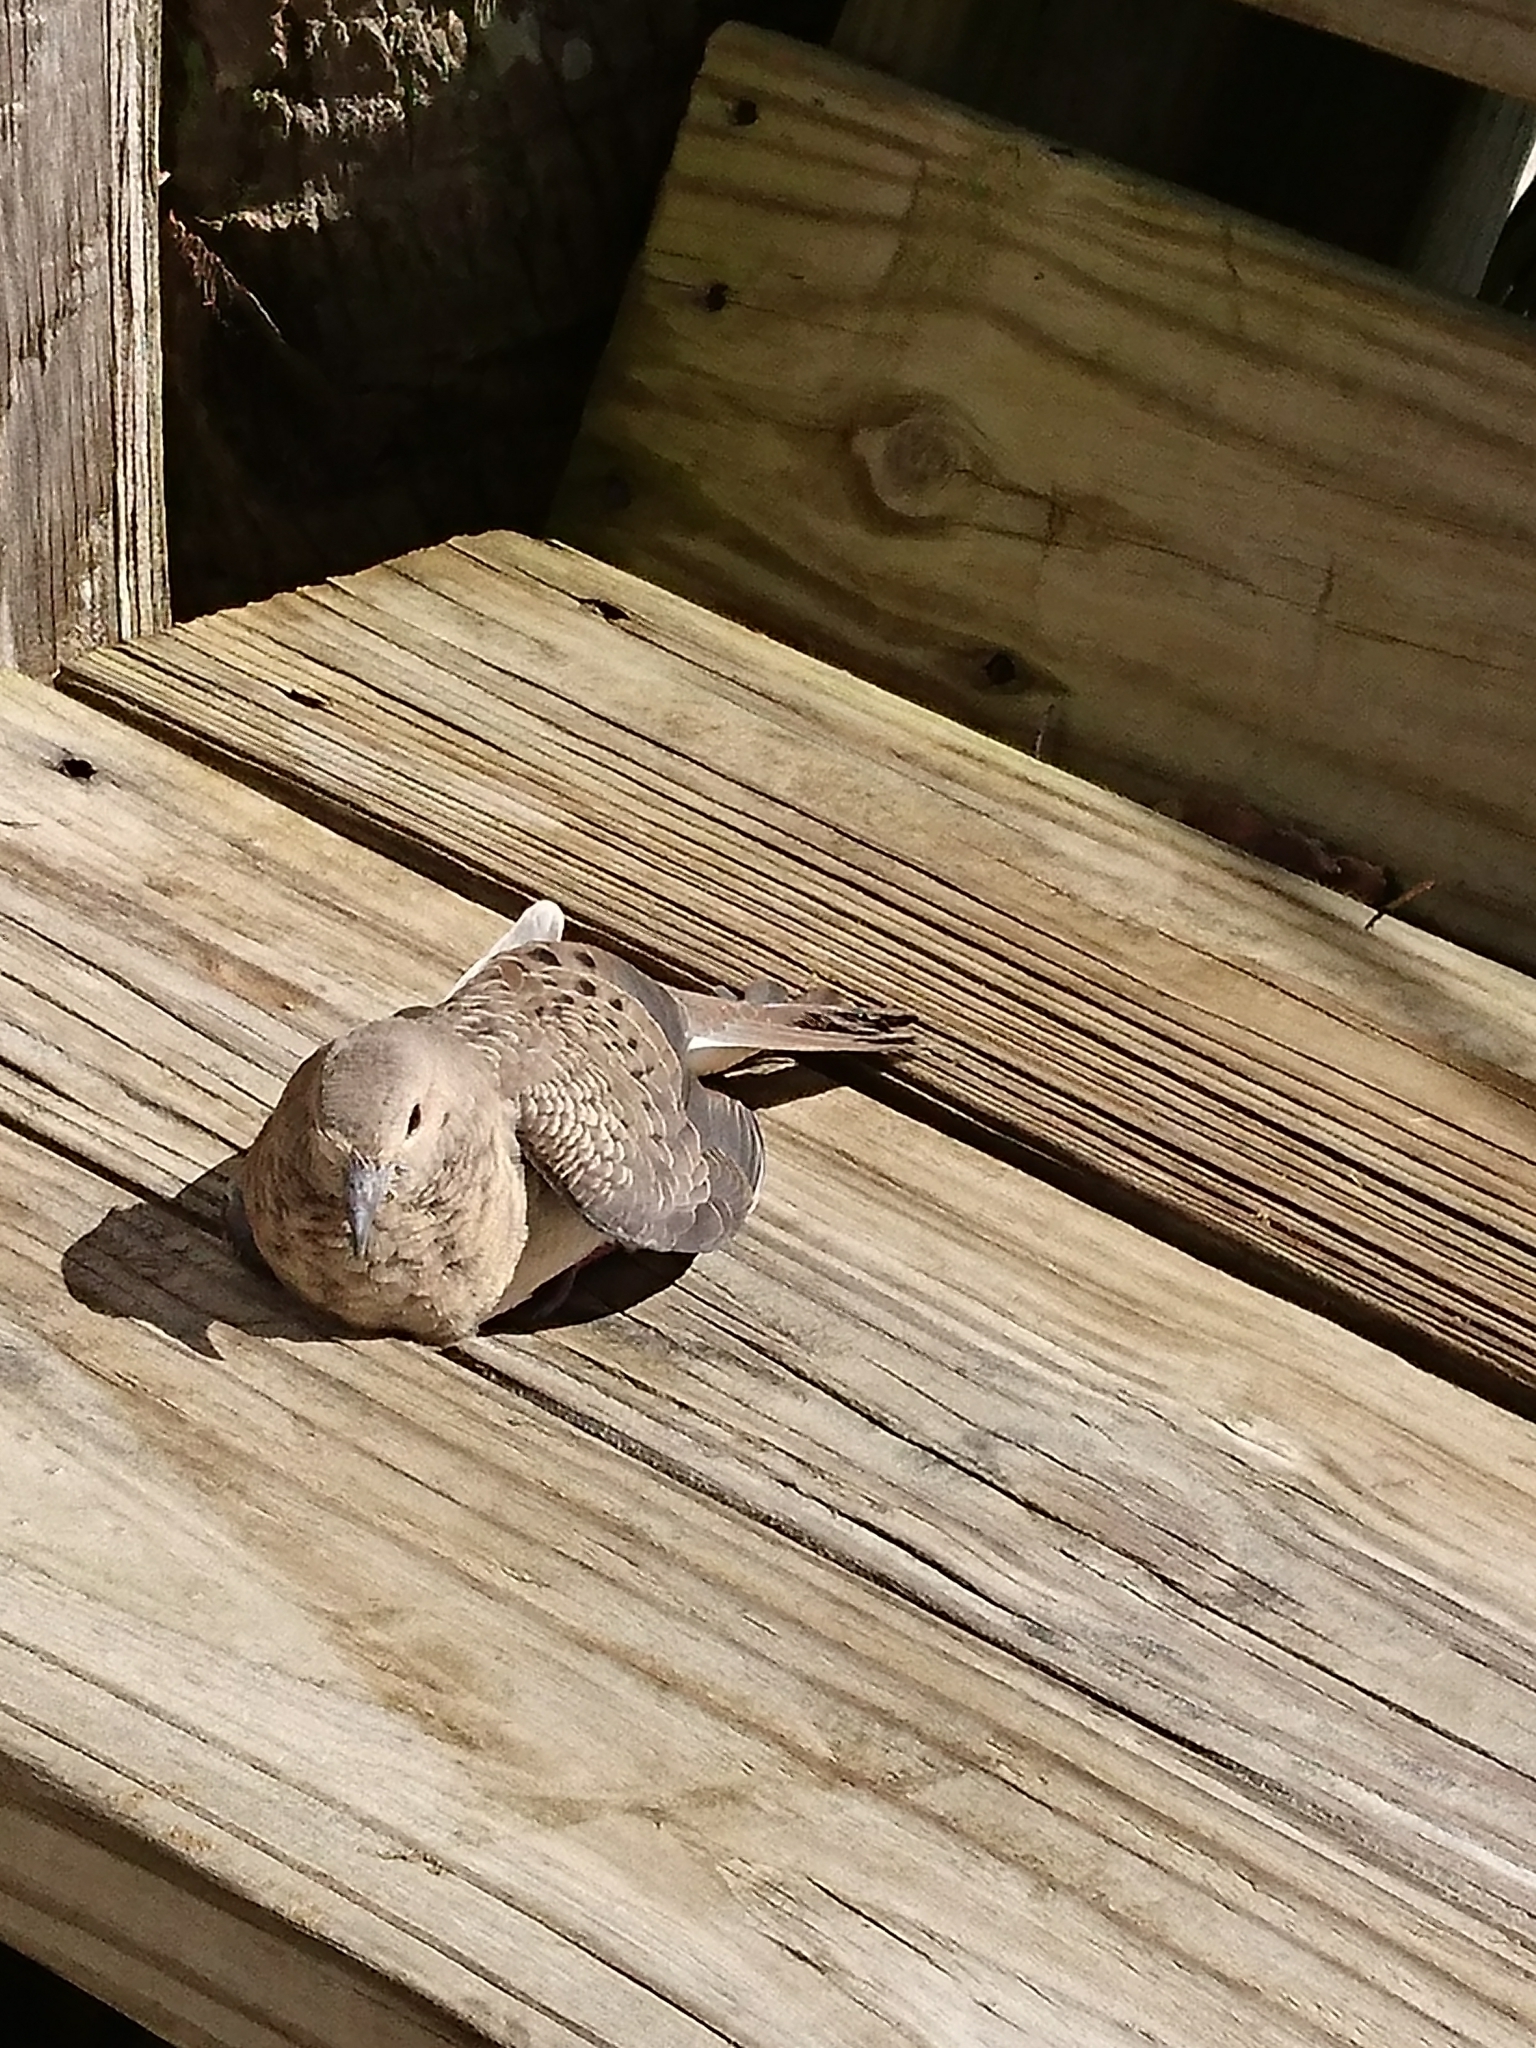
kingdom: Animalia
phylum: Chordata
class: Aves
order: Columbiformes
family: Columbidae
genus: Zenaida
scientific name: Zenaida macroura
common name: Mourning dove
